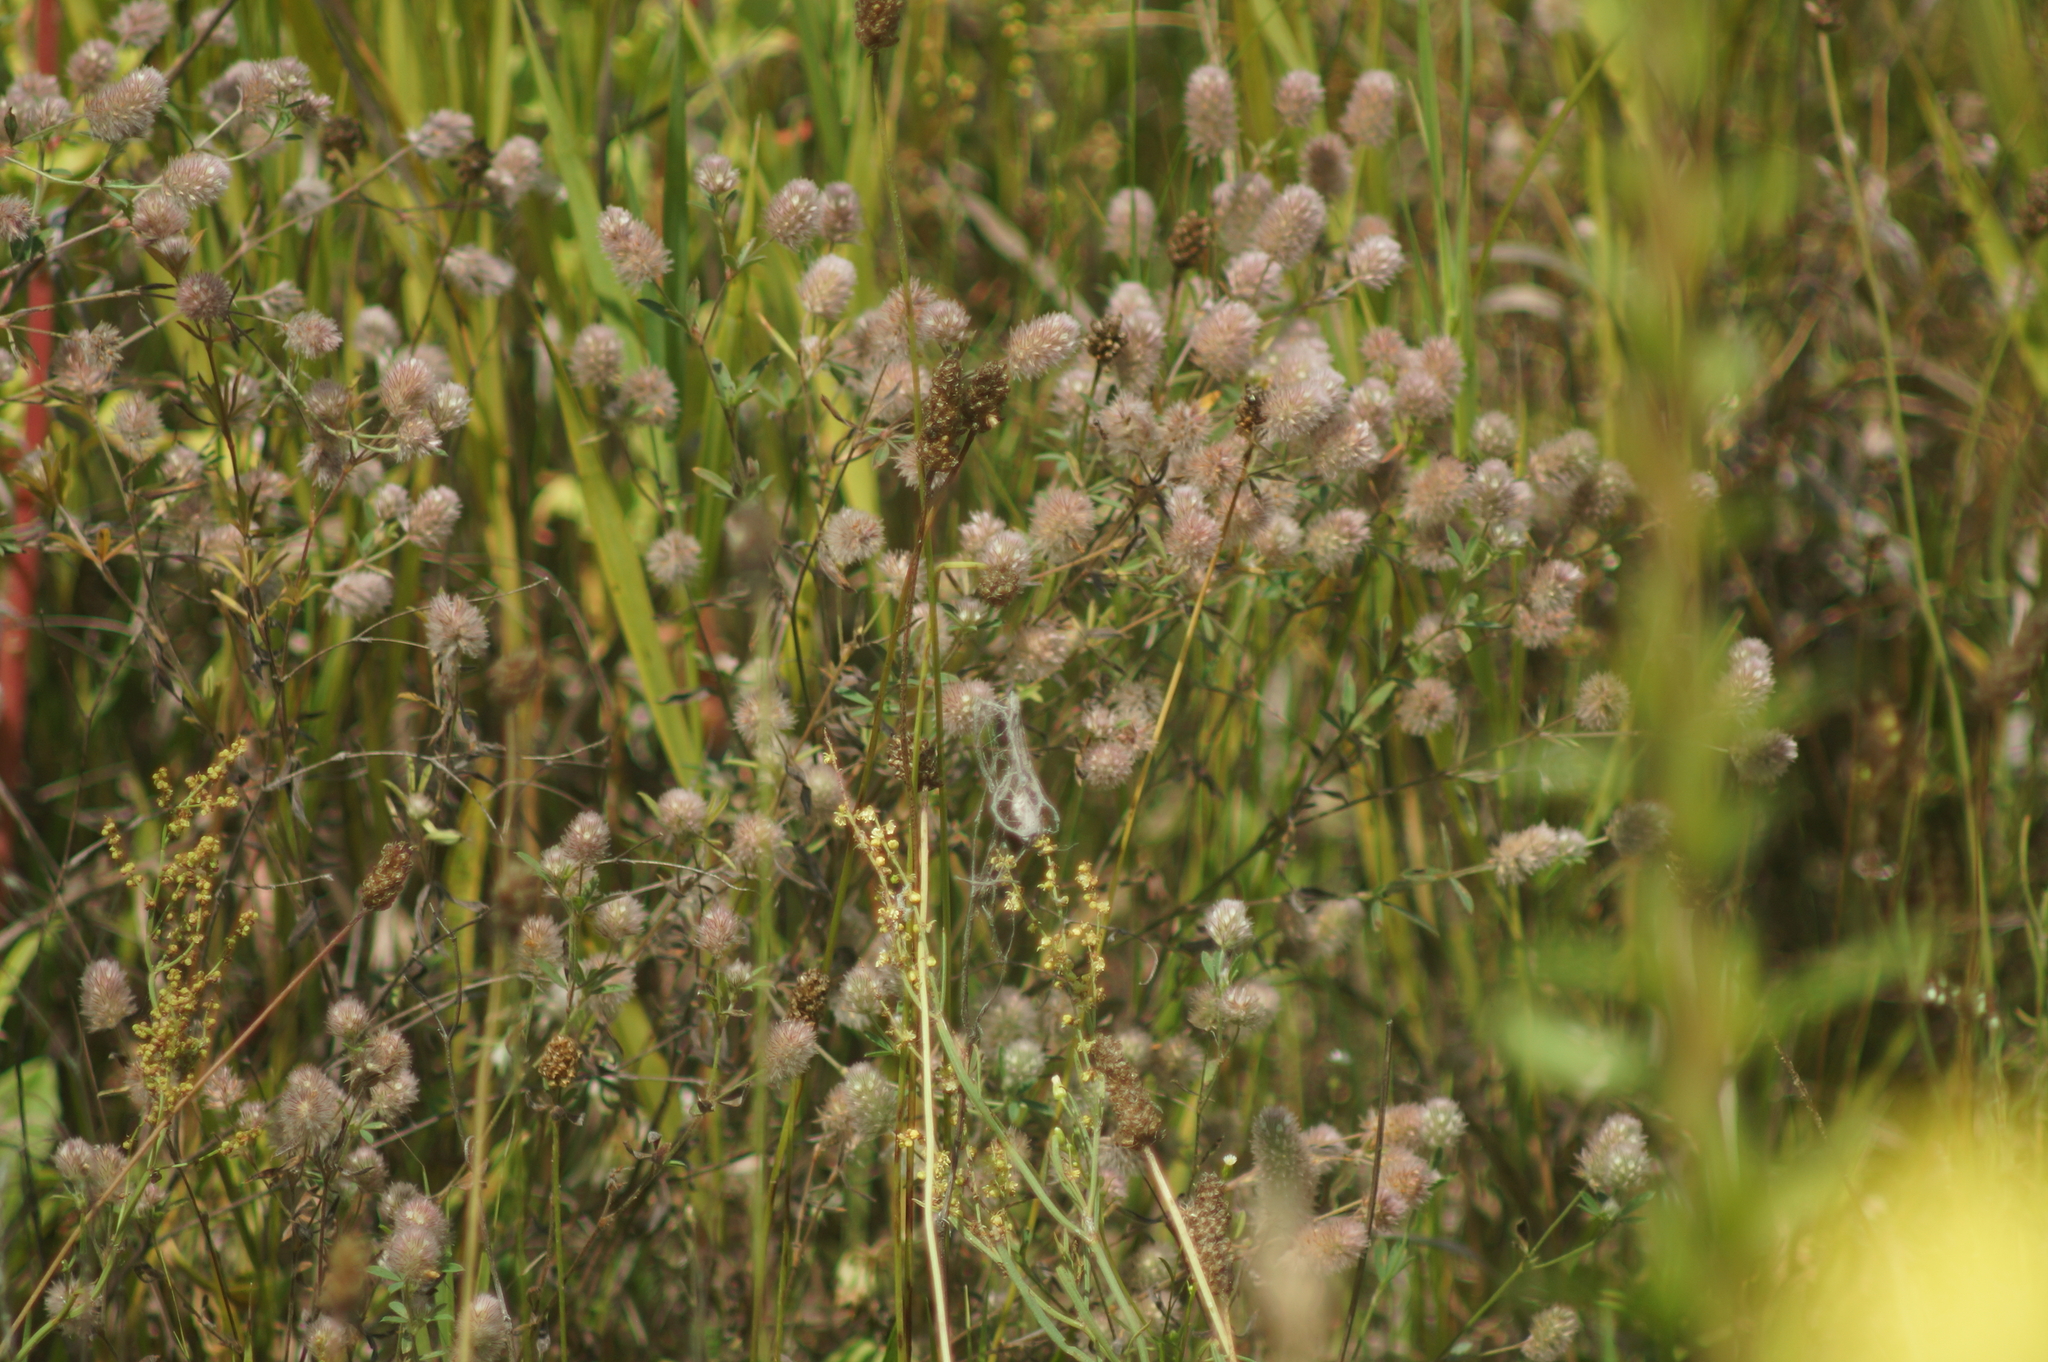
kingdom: Plantae
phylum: Tracheophyta
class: Magnoliopsida
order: Fabales
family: Fabaceae
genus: Trifolium
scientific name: Trifolium arvense
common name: Hare's-foot clover
